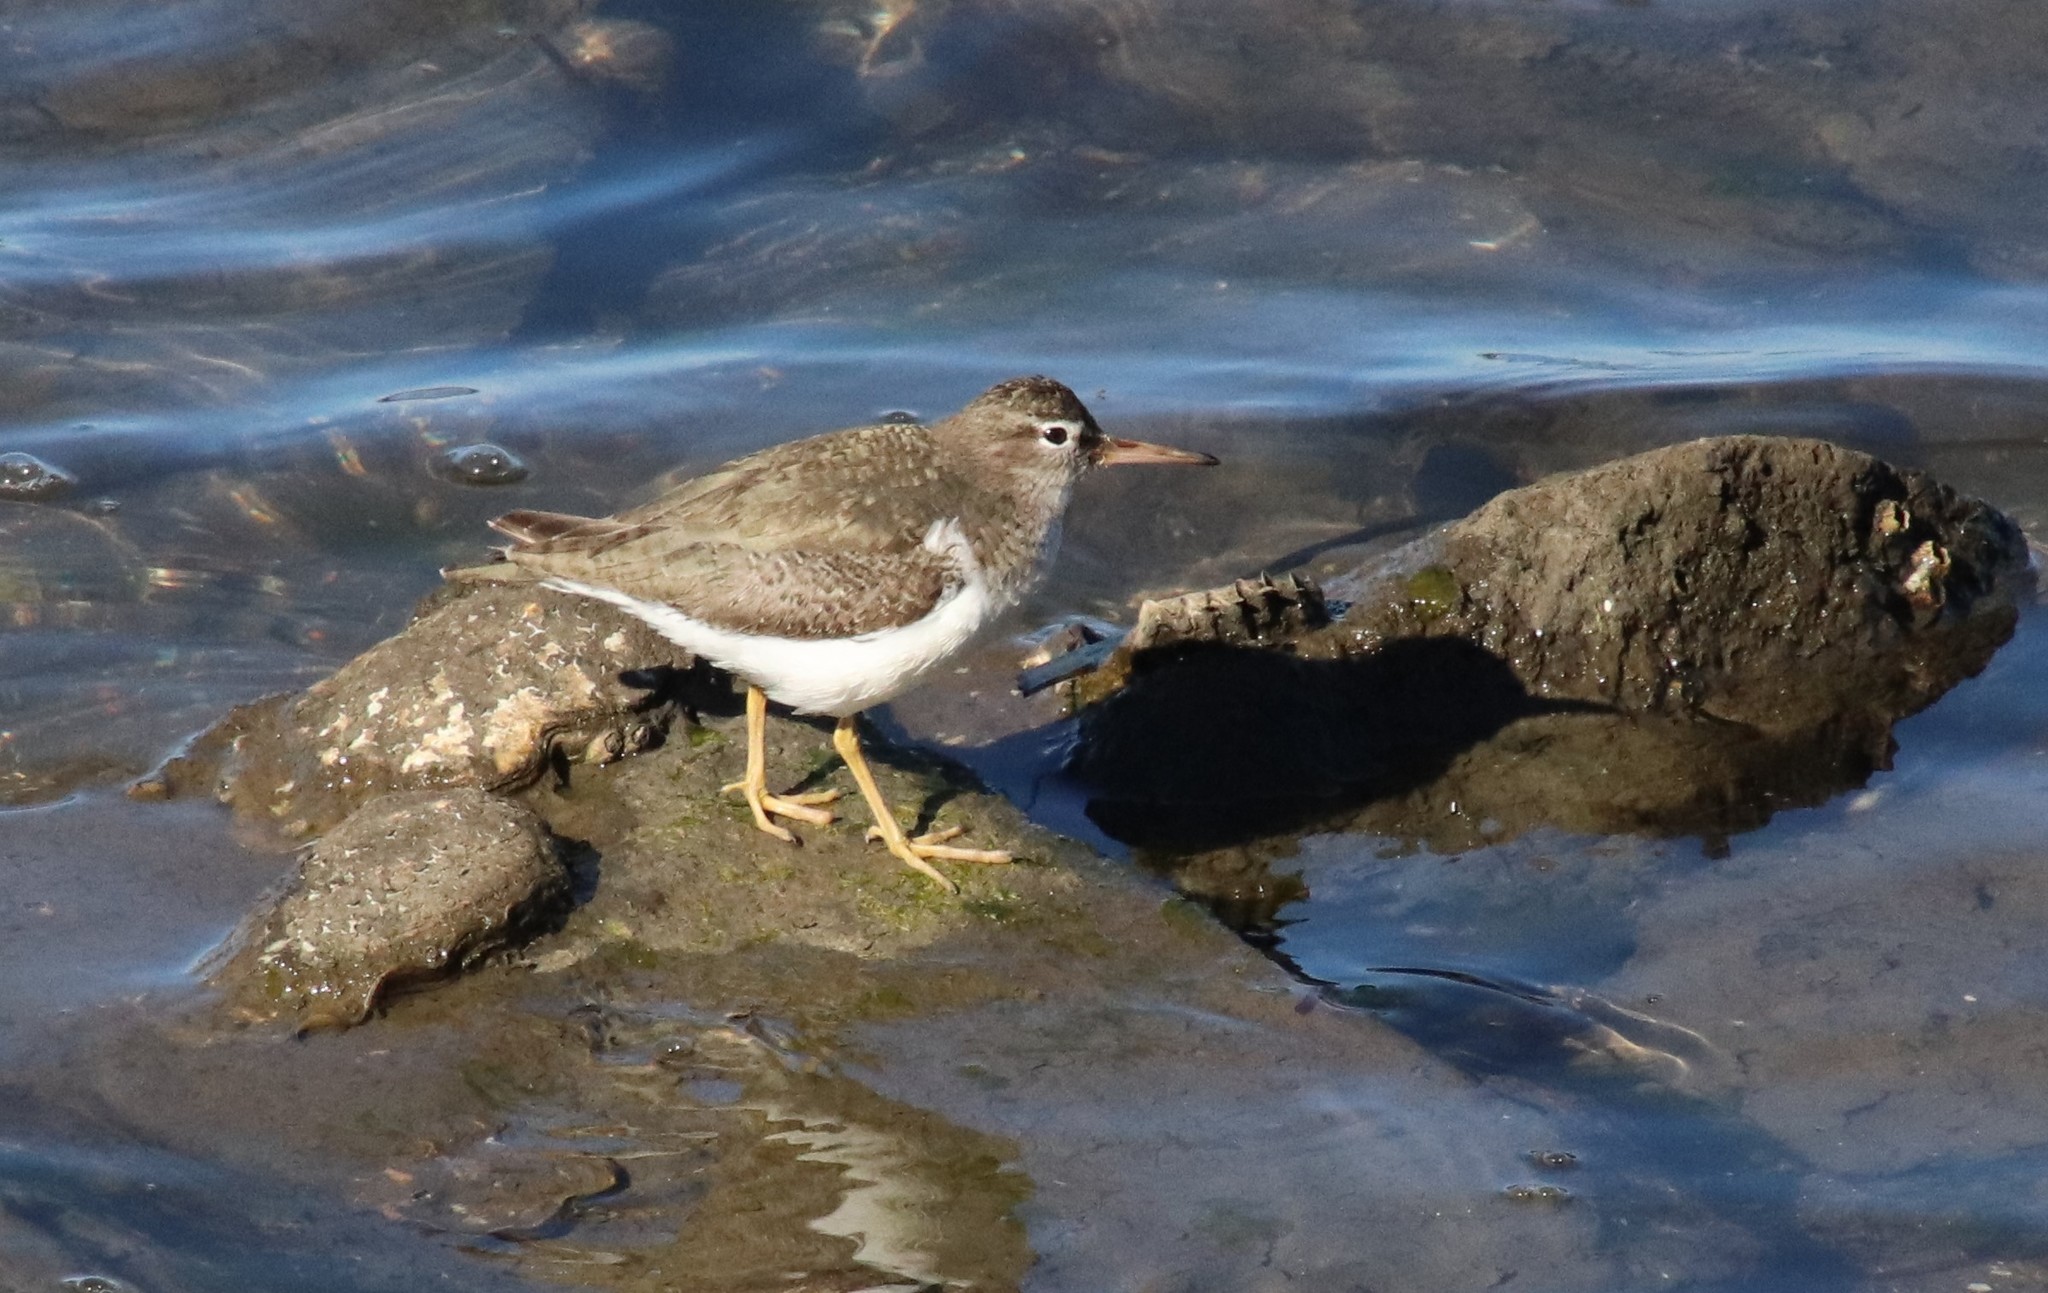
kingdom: Animalia
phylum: Chordata
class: Aves
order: Charadriiformes
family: Scolopacidae
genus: Actitis
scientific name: Actitis macularius
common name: Spotted sandpiper
